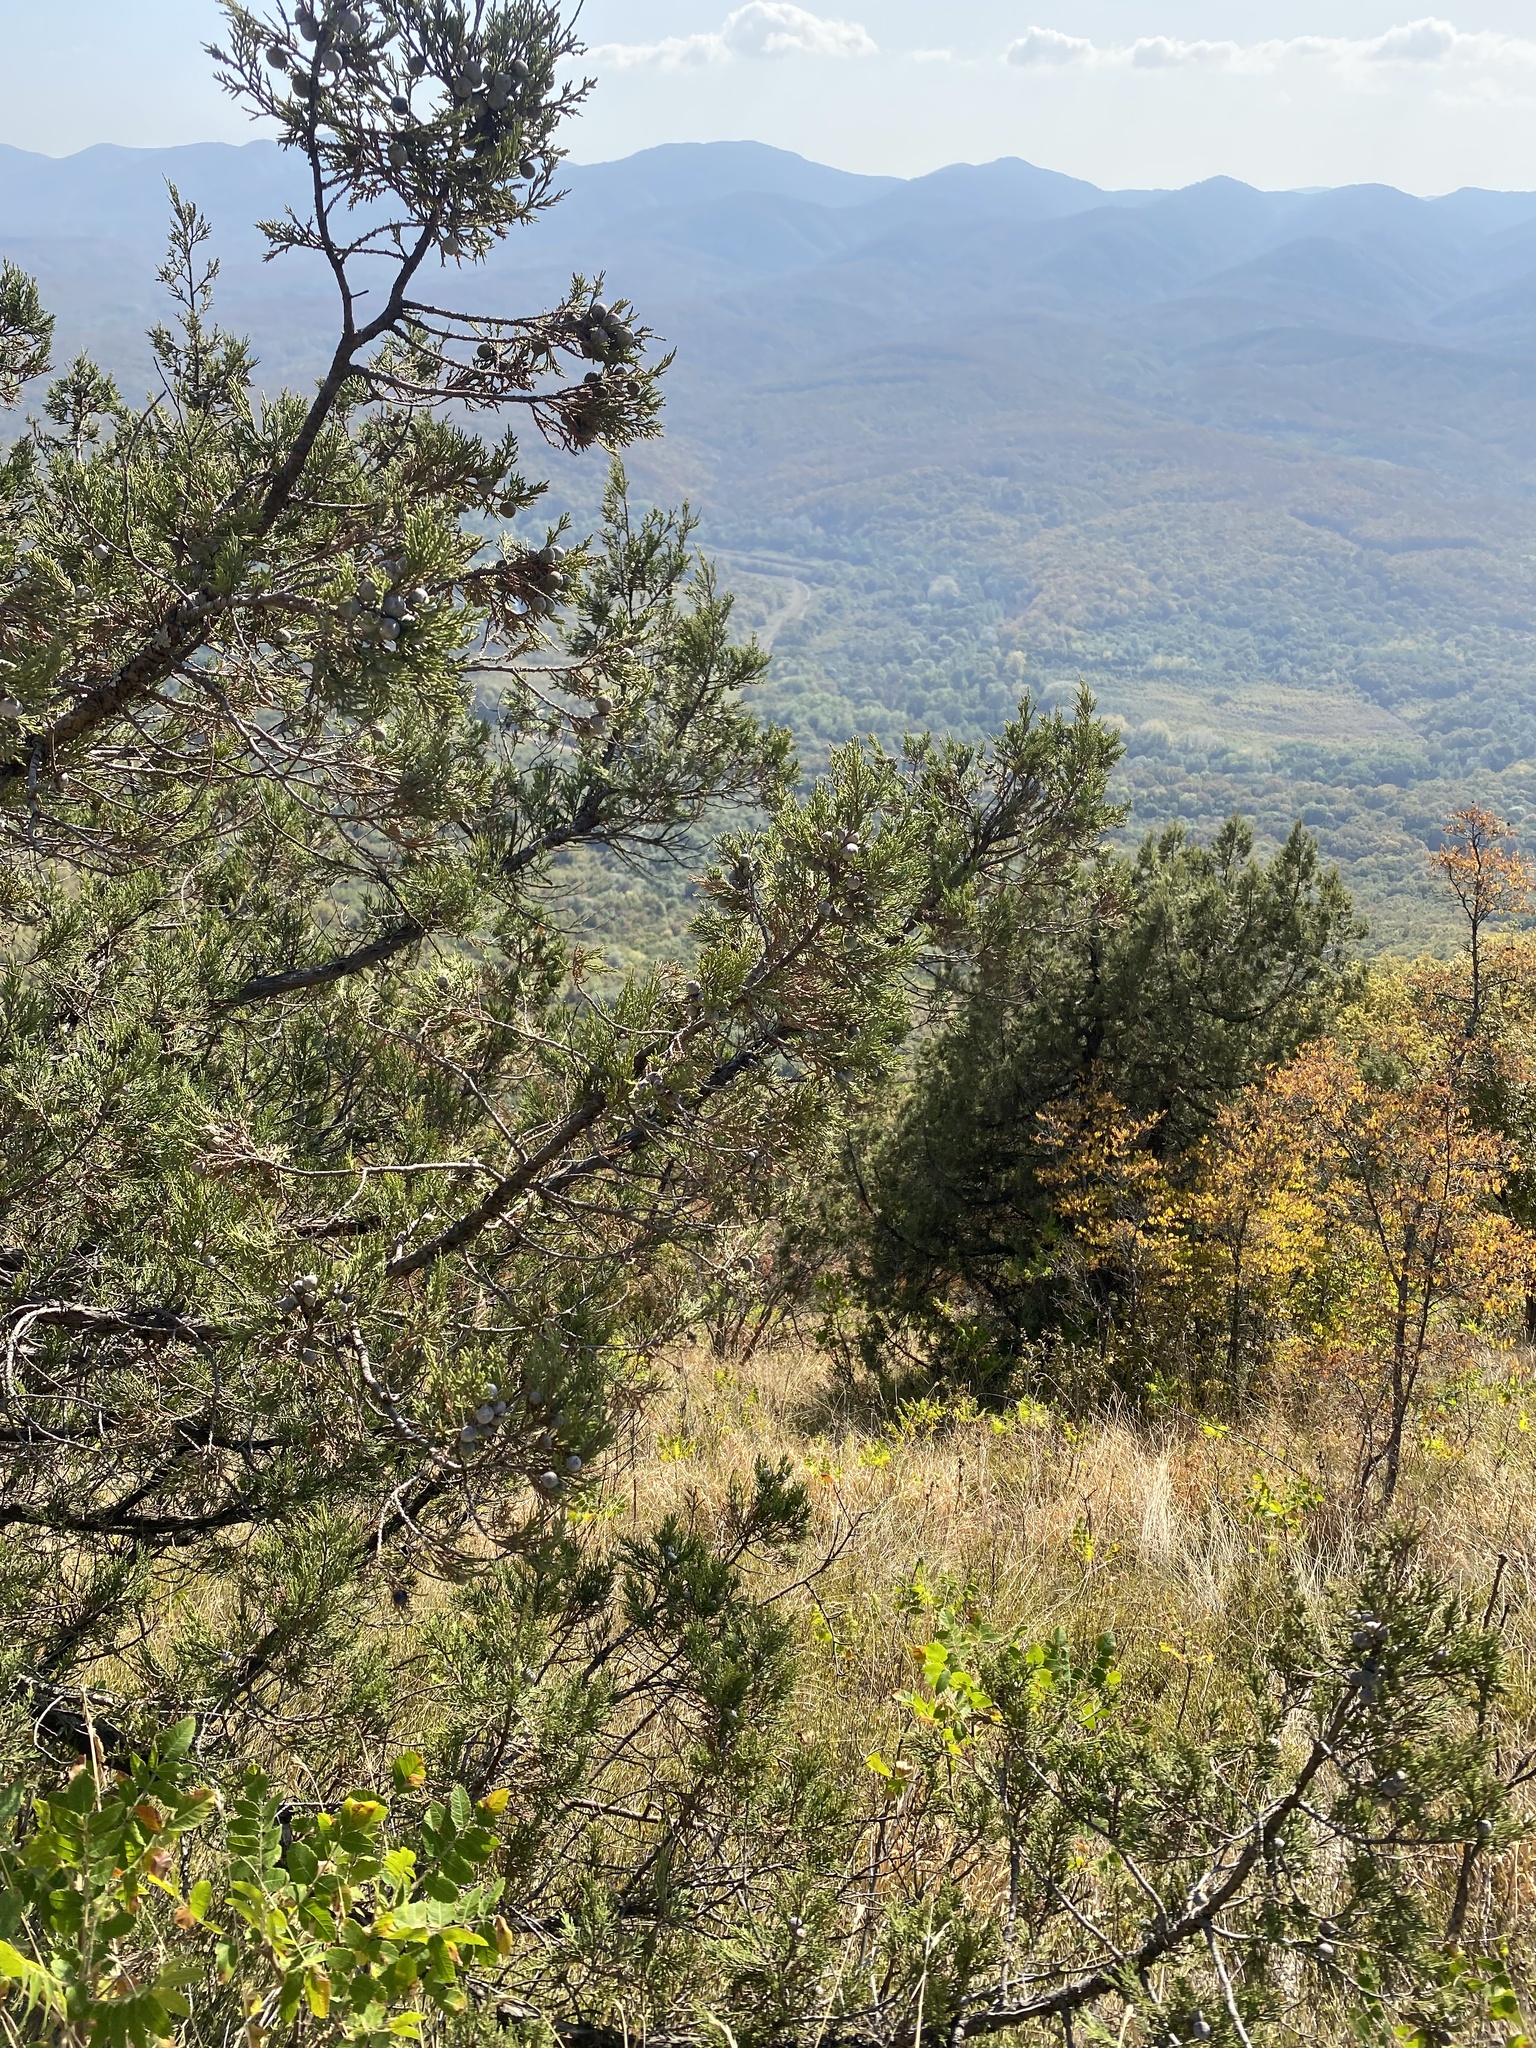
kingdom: Plantae
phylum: Tracheophyta
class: Pinopsida
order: Pinales
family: Cupressaceae
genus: Juniperus
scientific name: Juniperus excelsa
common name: Crimean juniper
